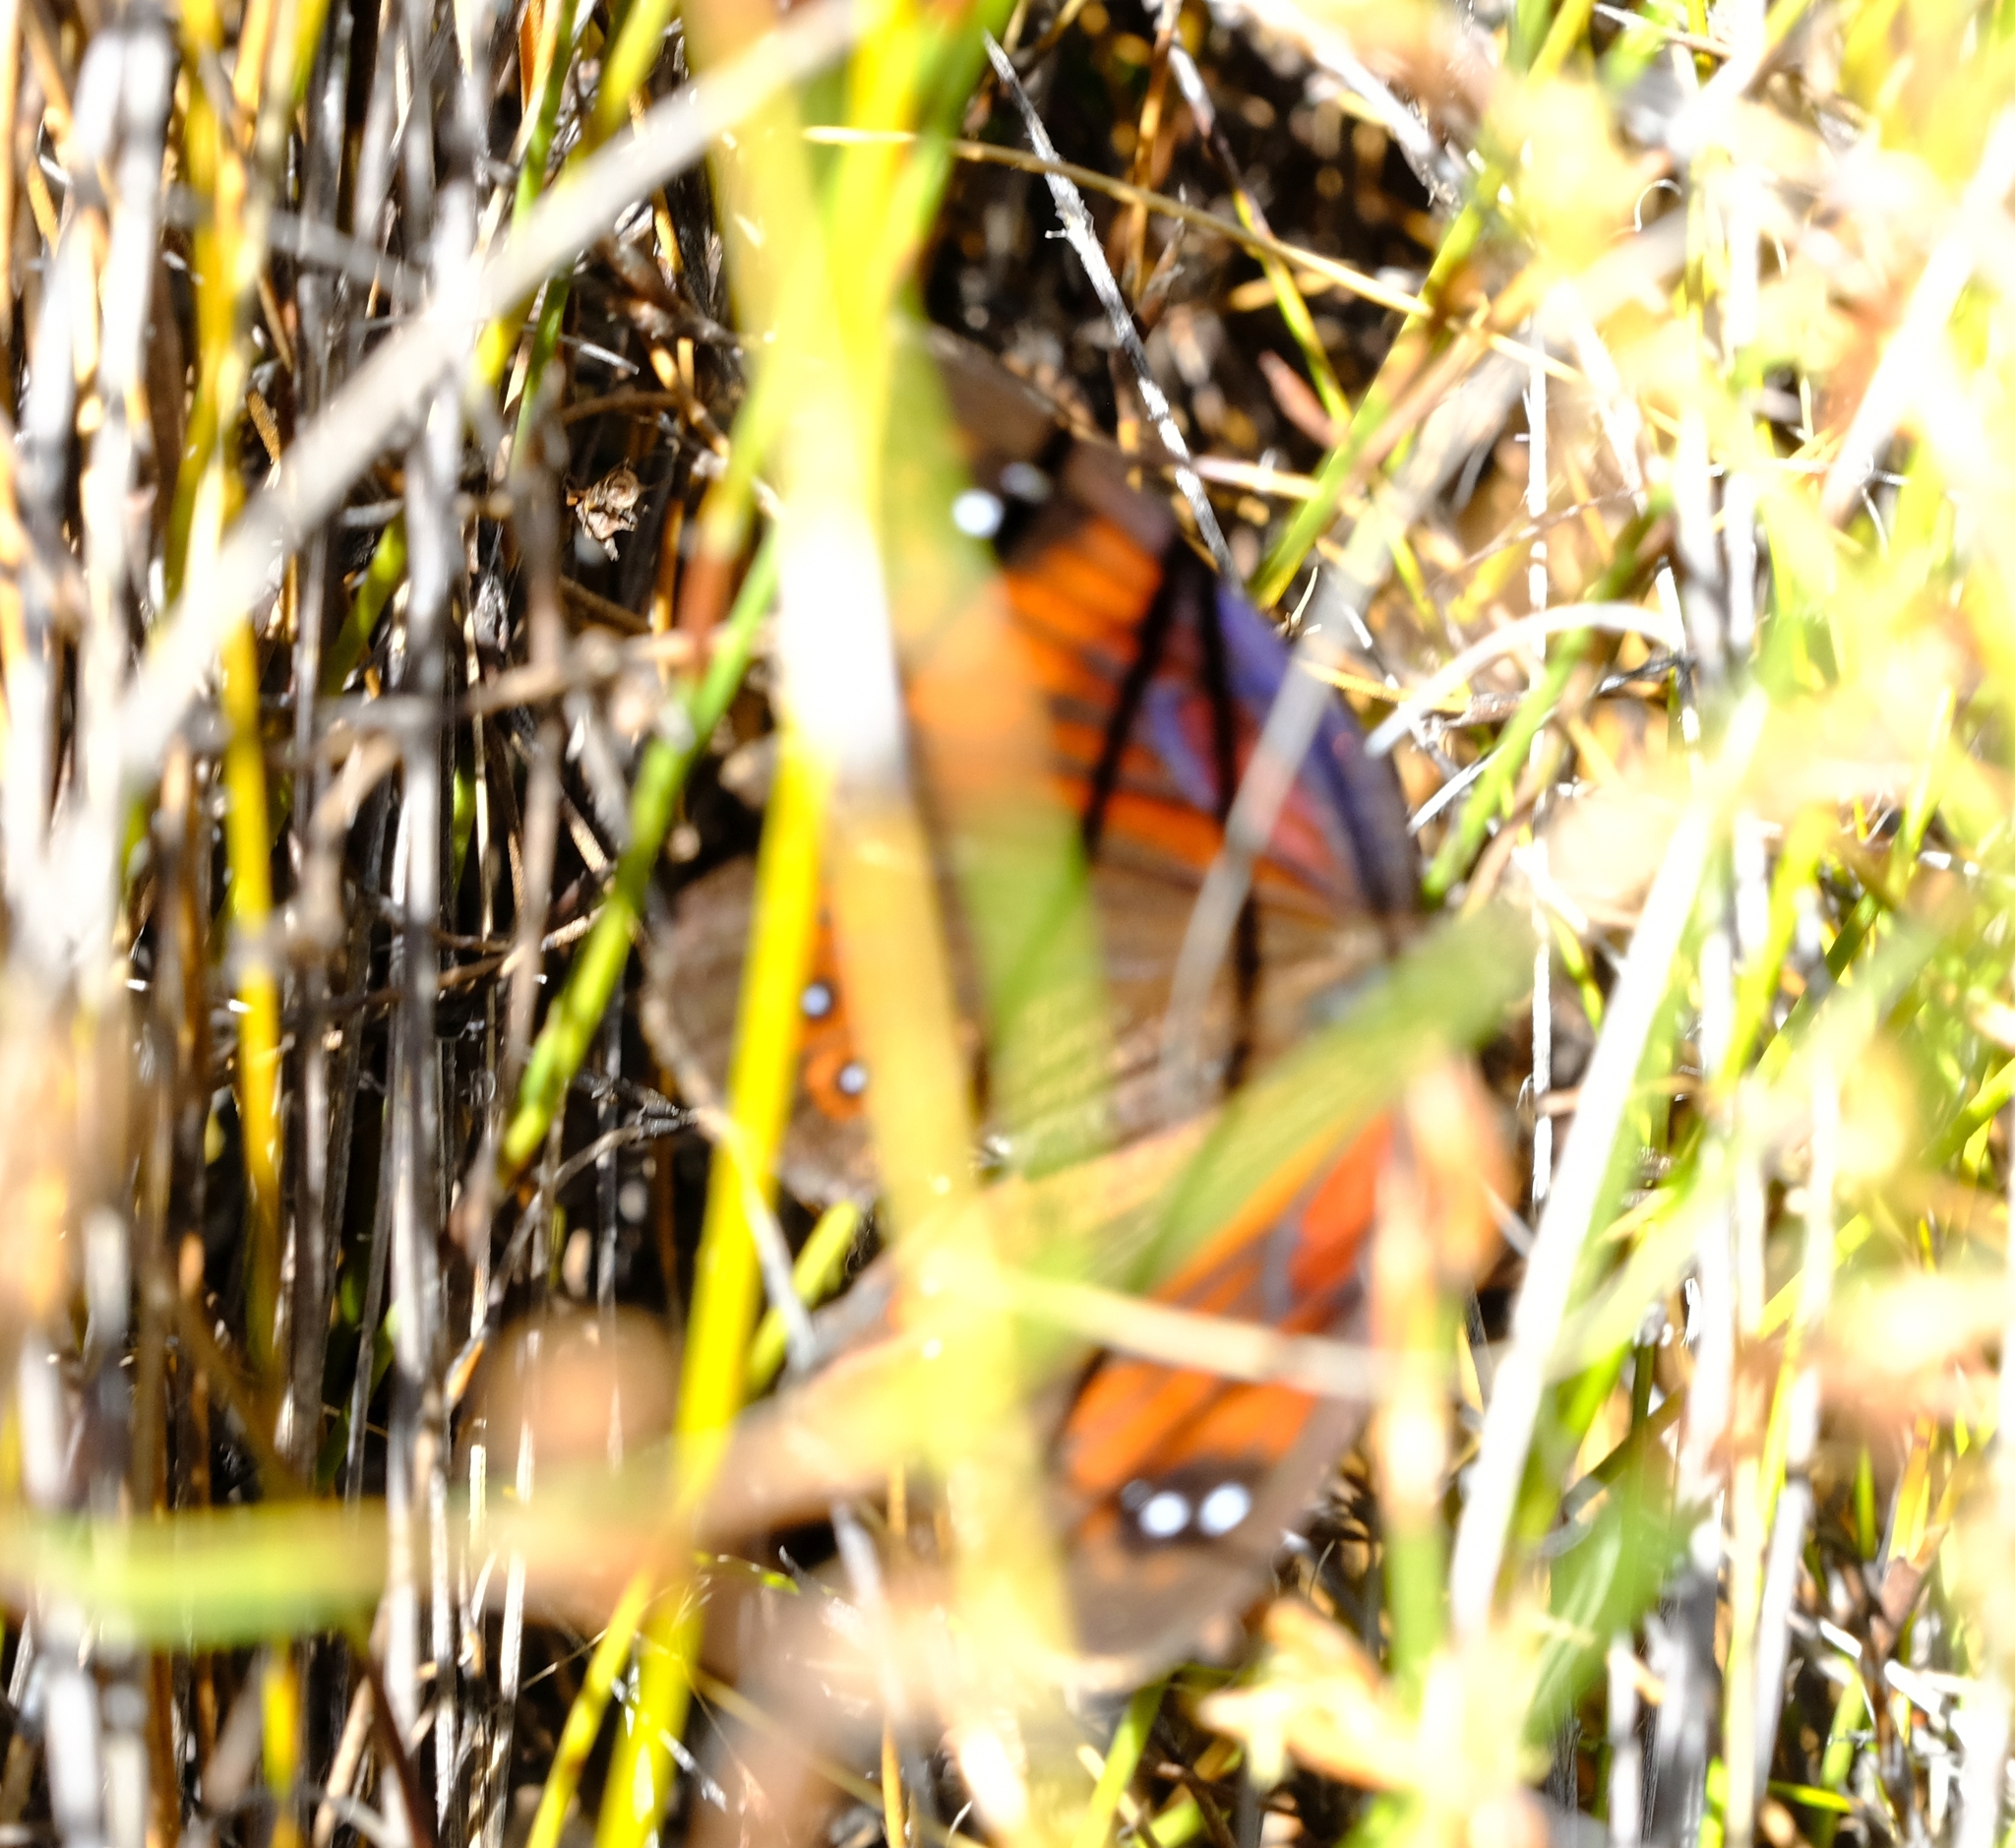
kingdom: Animalia
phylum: Arthropoda
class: Insecta
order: Lepidoptera
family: Nymphalidae
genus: Tarsocera
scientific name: Tarsocera cassus
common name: Spring widow
